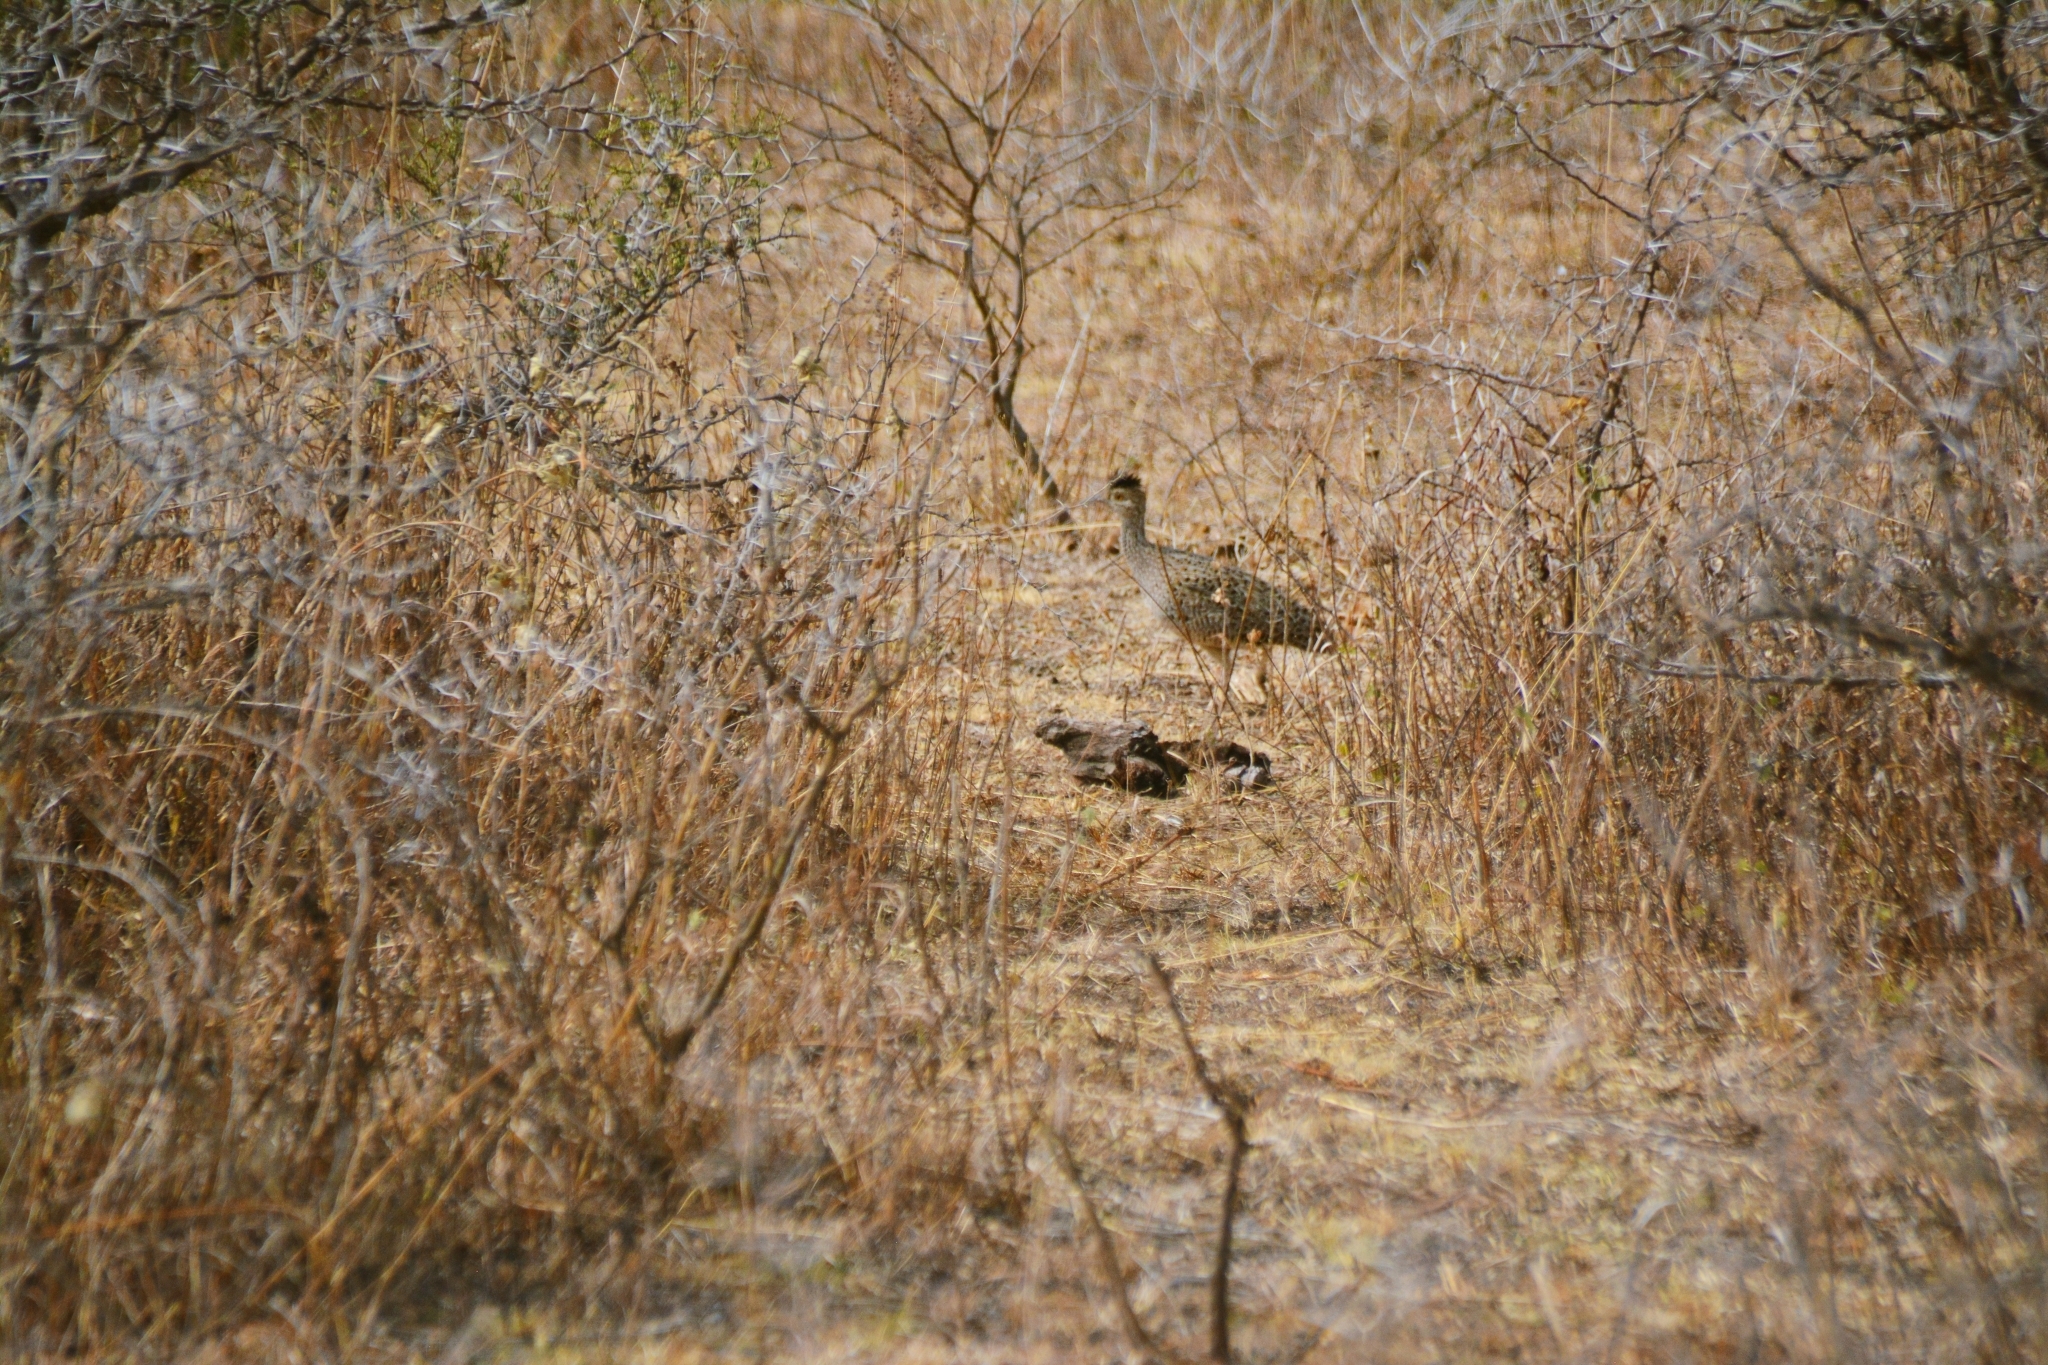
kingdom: Animalia
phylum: Chordata
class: Aves
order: Tinamiformes
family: Tinamidae
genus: Nothoprocta
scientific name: Nothoprocta cinerascens
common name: Brushland tinamou
